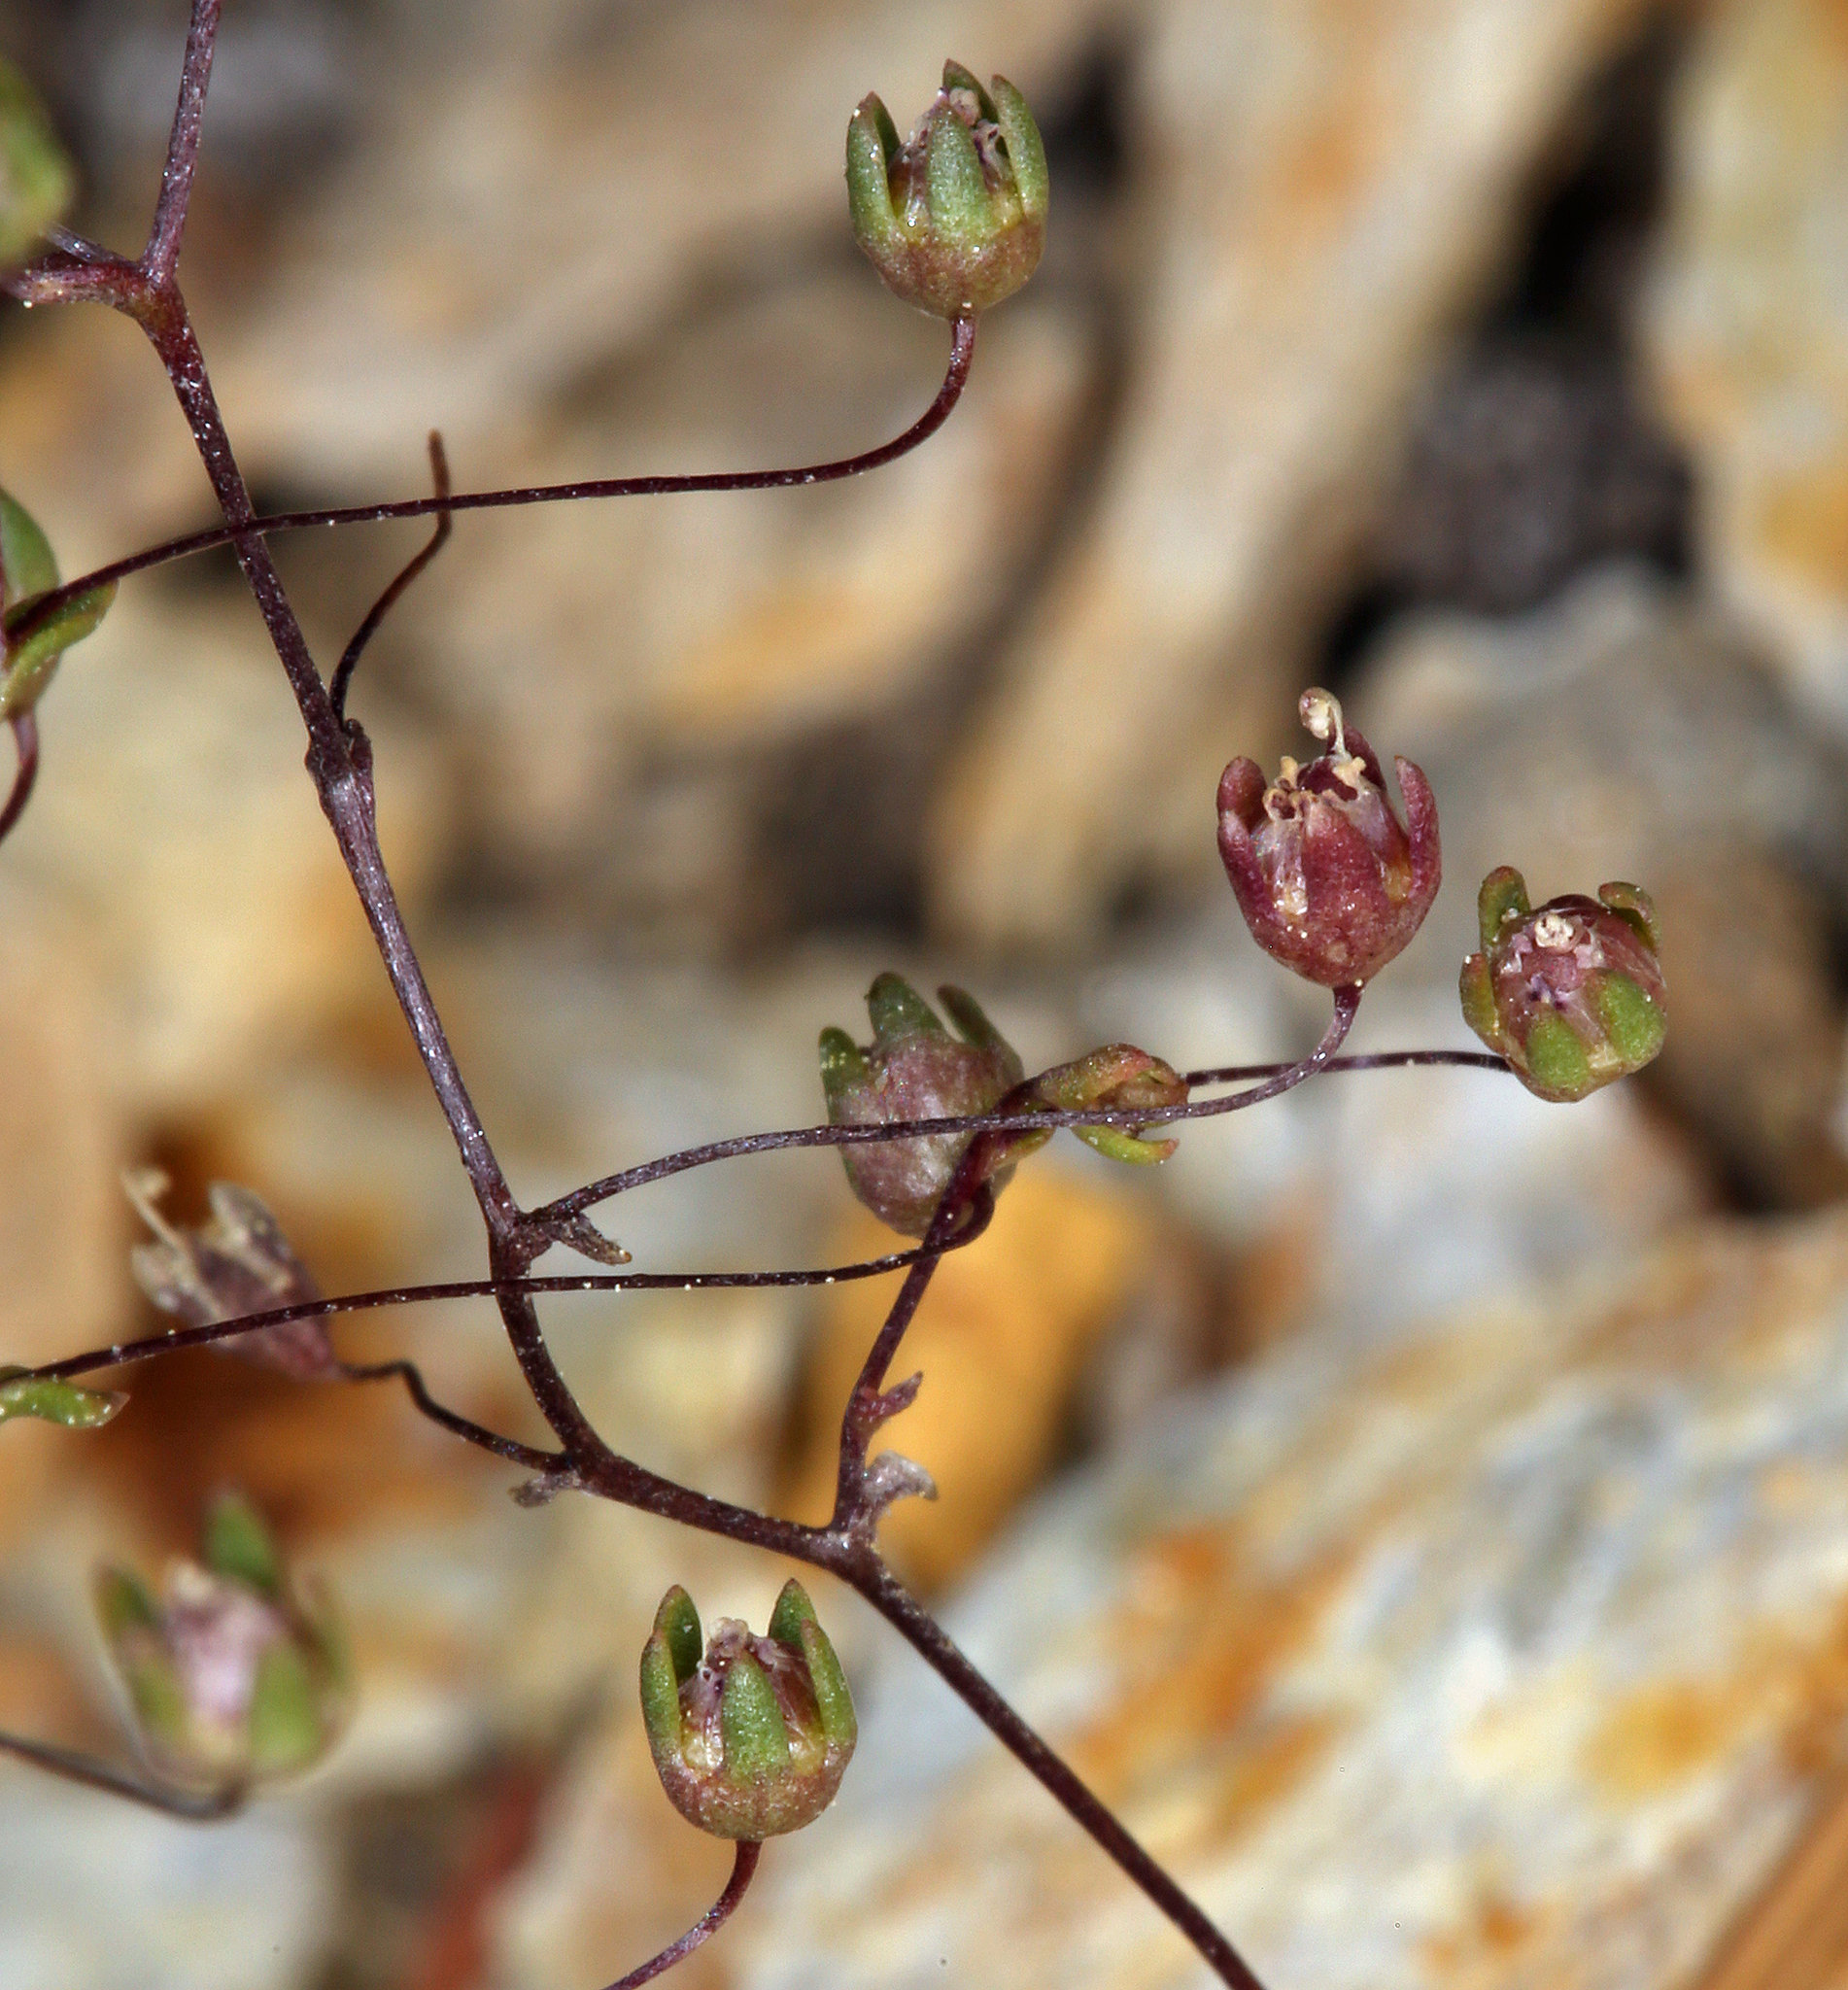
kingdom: Plantae
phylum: Tracheophyta
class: Magnoliopsida
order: Asterales
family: Campanulaceae
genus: Nemacladus
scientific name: Nemacladus inyoensis
